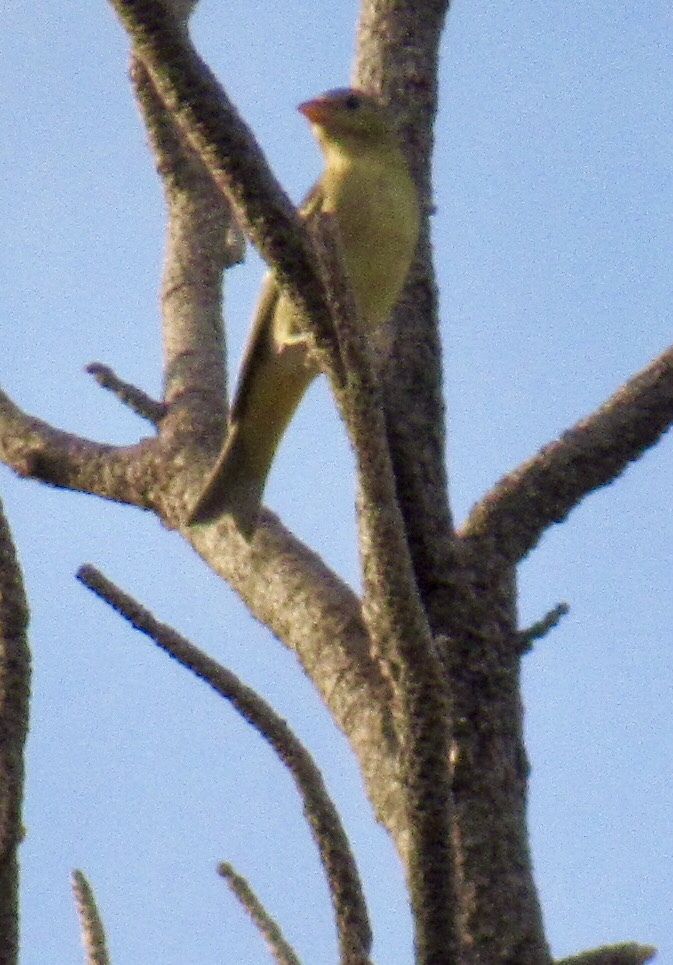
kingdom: Animalia
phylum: Chordata
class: Aves
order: Passeriformes
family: Cardinalidae
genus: Piranga
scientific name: Piranga ludoviciana
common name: Western tanager
